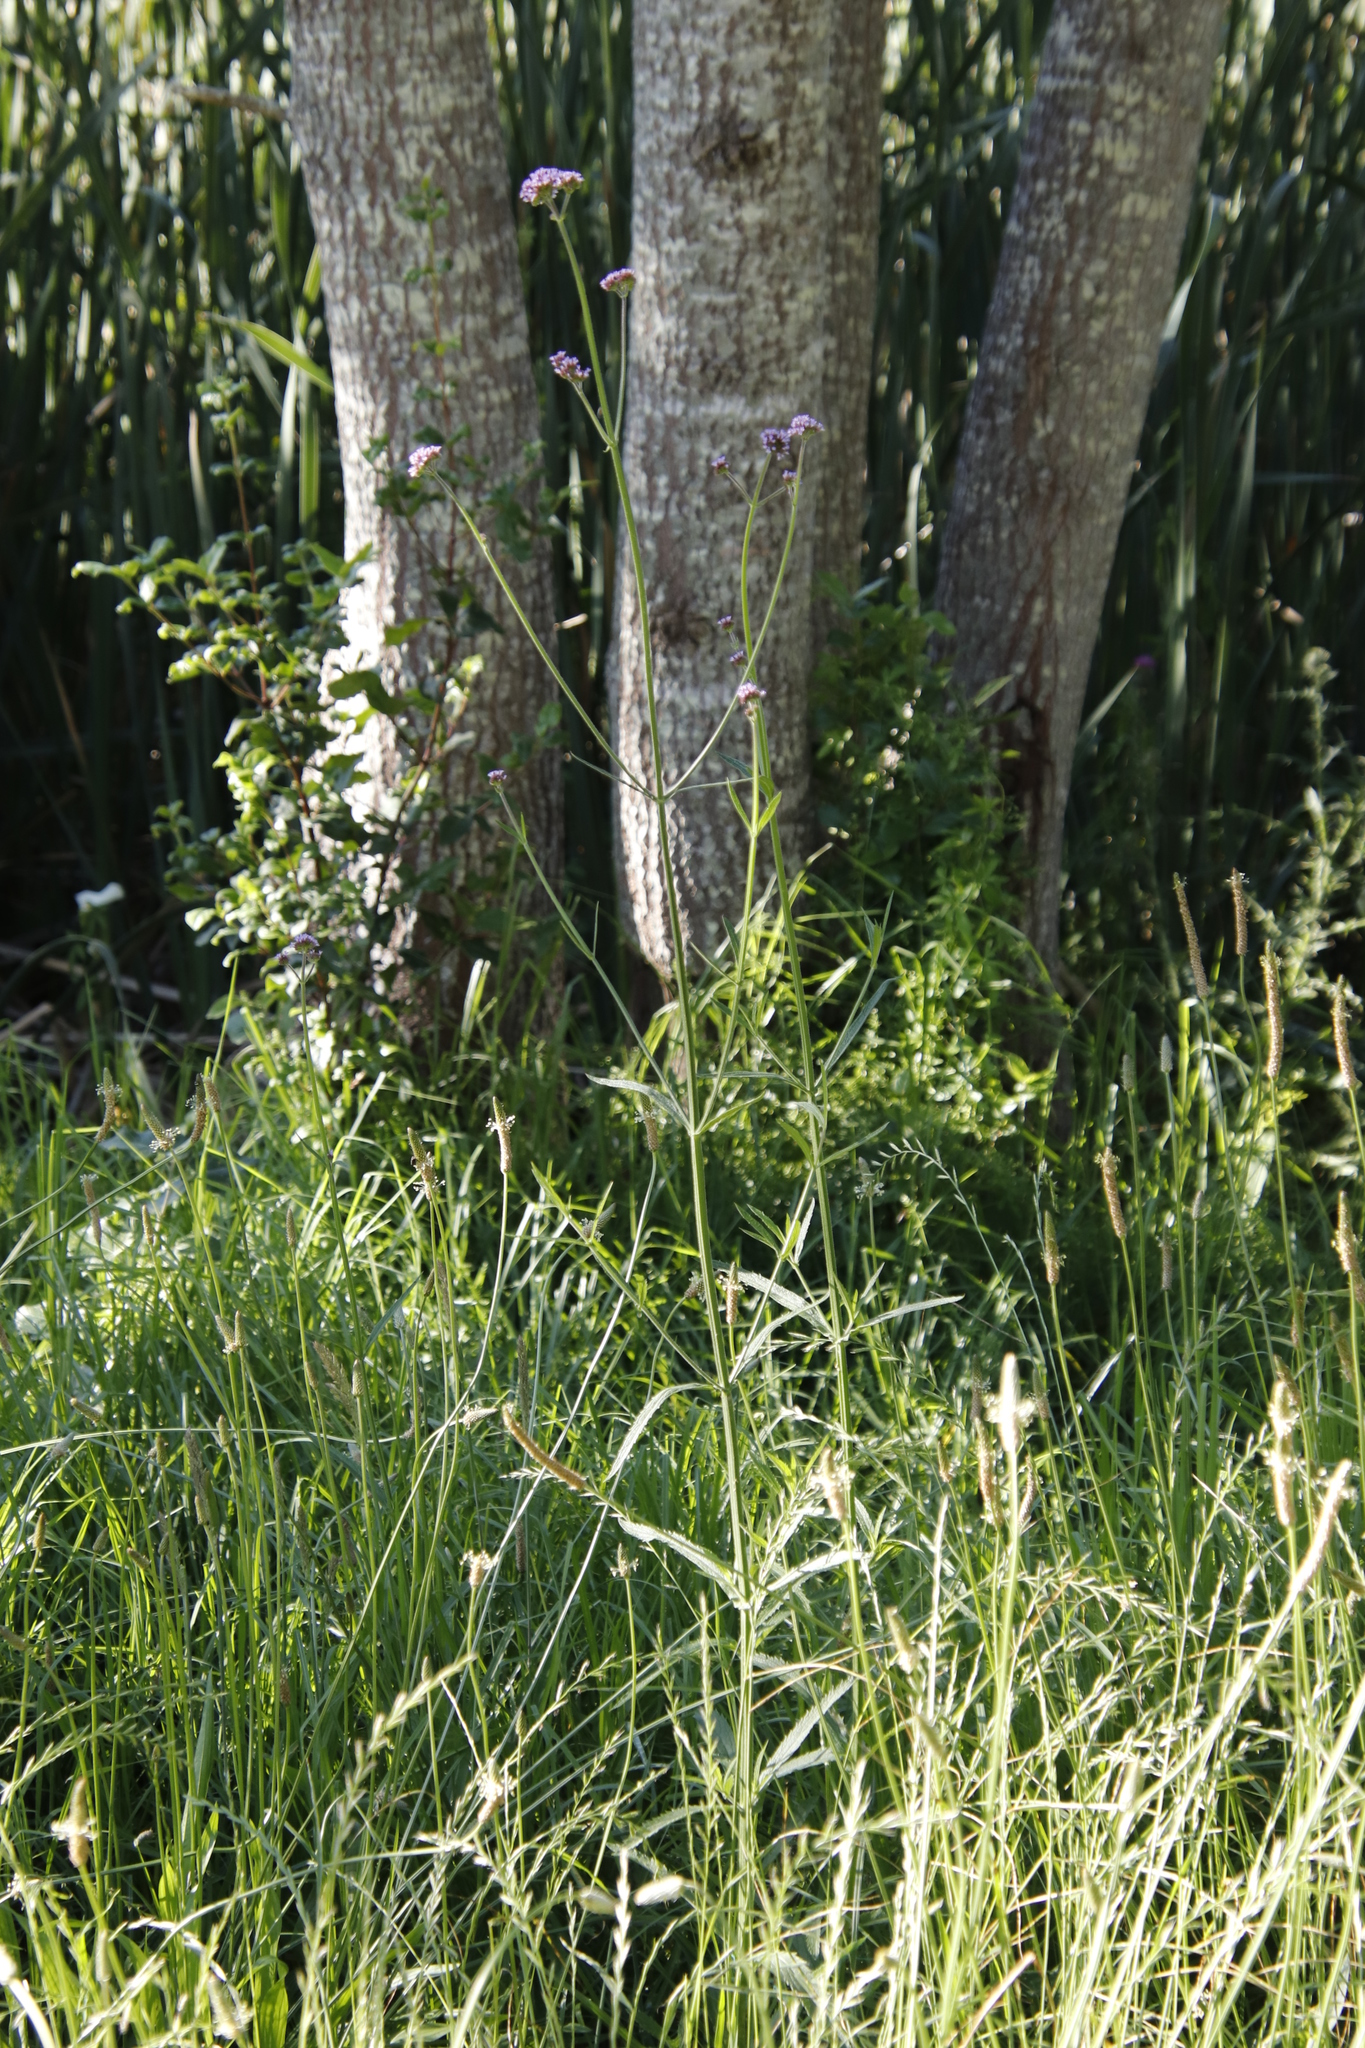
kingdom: Plantae
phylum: Tracheophyta
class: Magnoliopsida
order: Lamiales
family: Verbenaceae
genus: Verbena
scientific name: Verbena bonariensis
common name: Purpletop vervain
